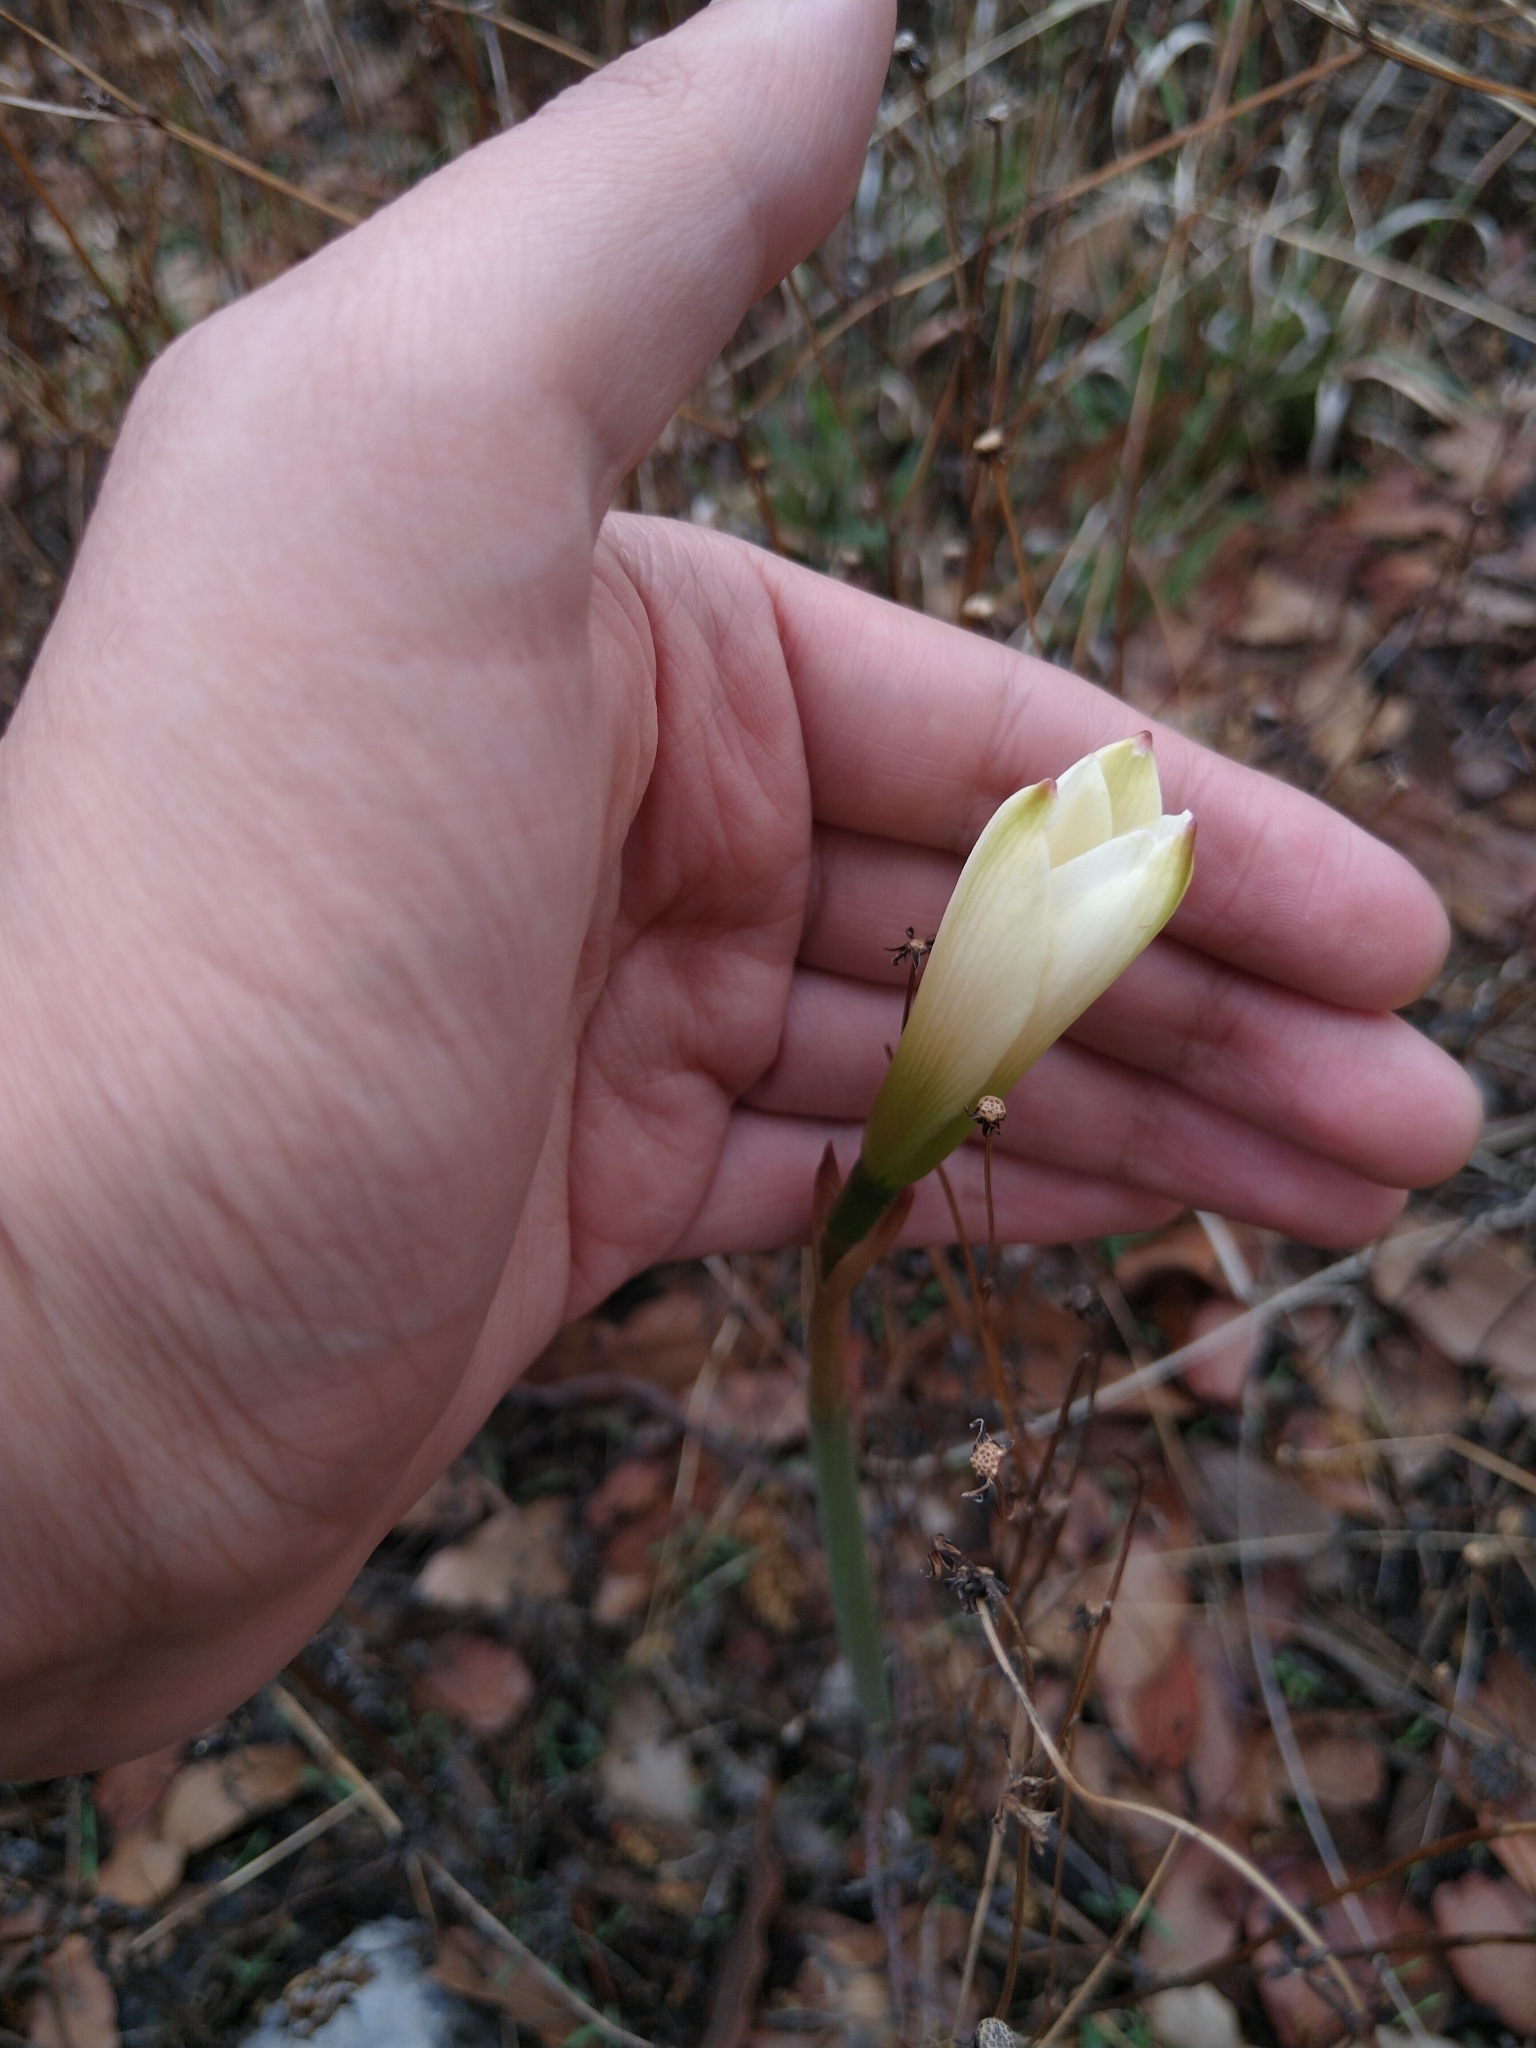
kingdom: Plantae
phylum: Tracheophyta
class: Liliopsida
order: Asparagales
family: Amaryllidaceae
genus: Zephyranthes
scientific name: Zephyranthes alba
